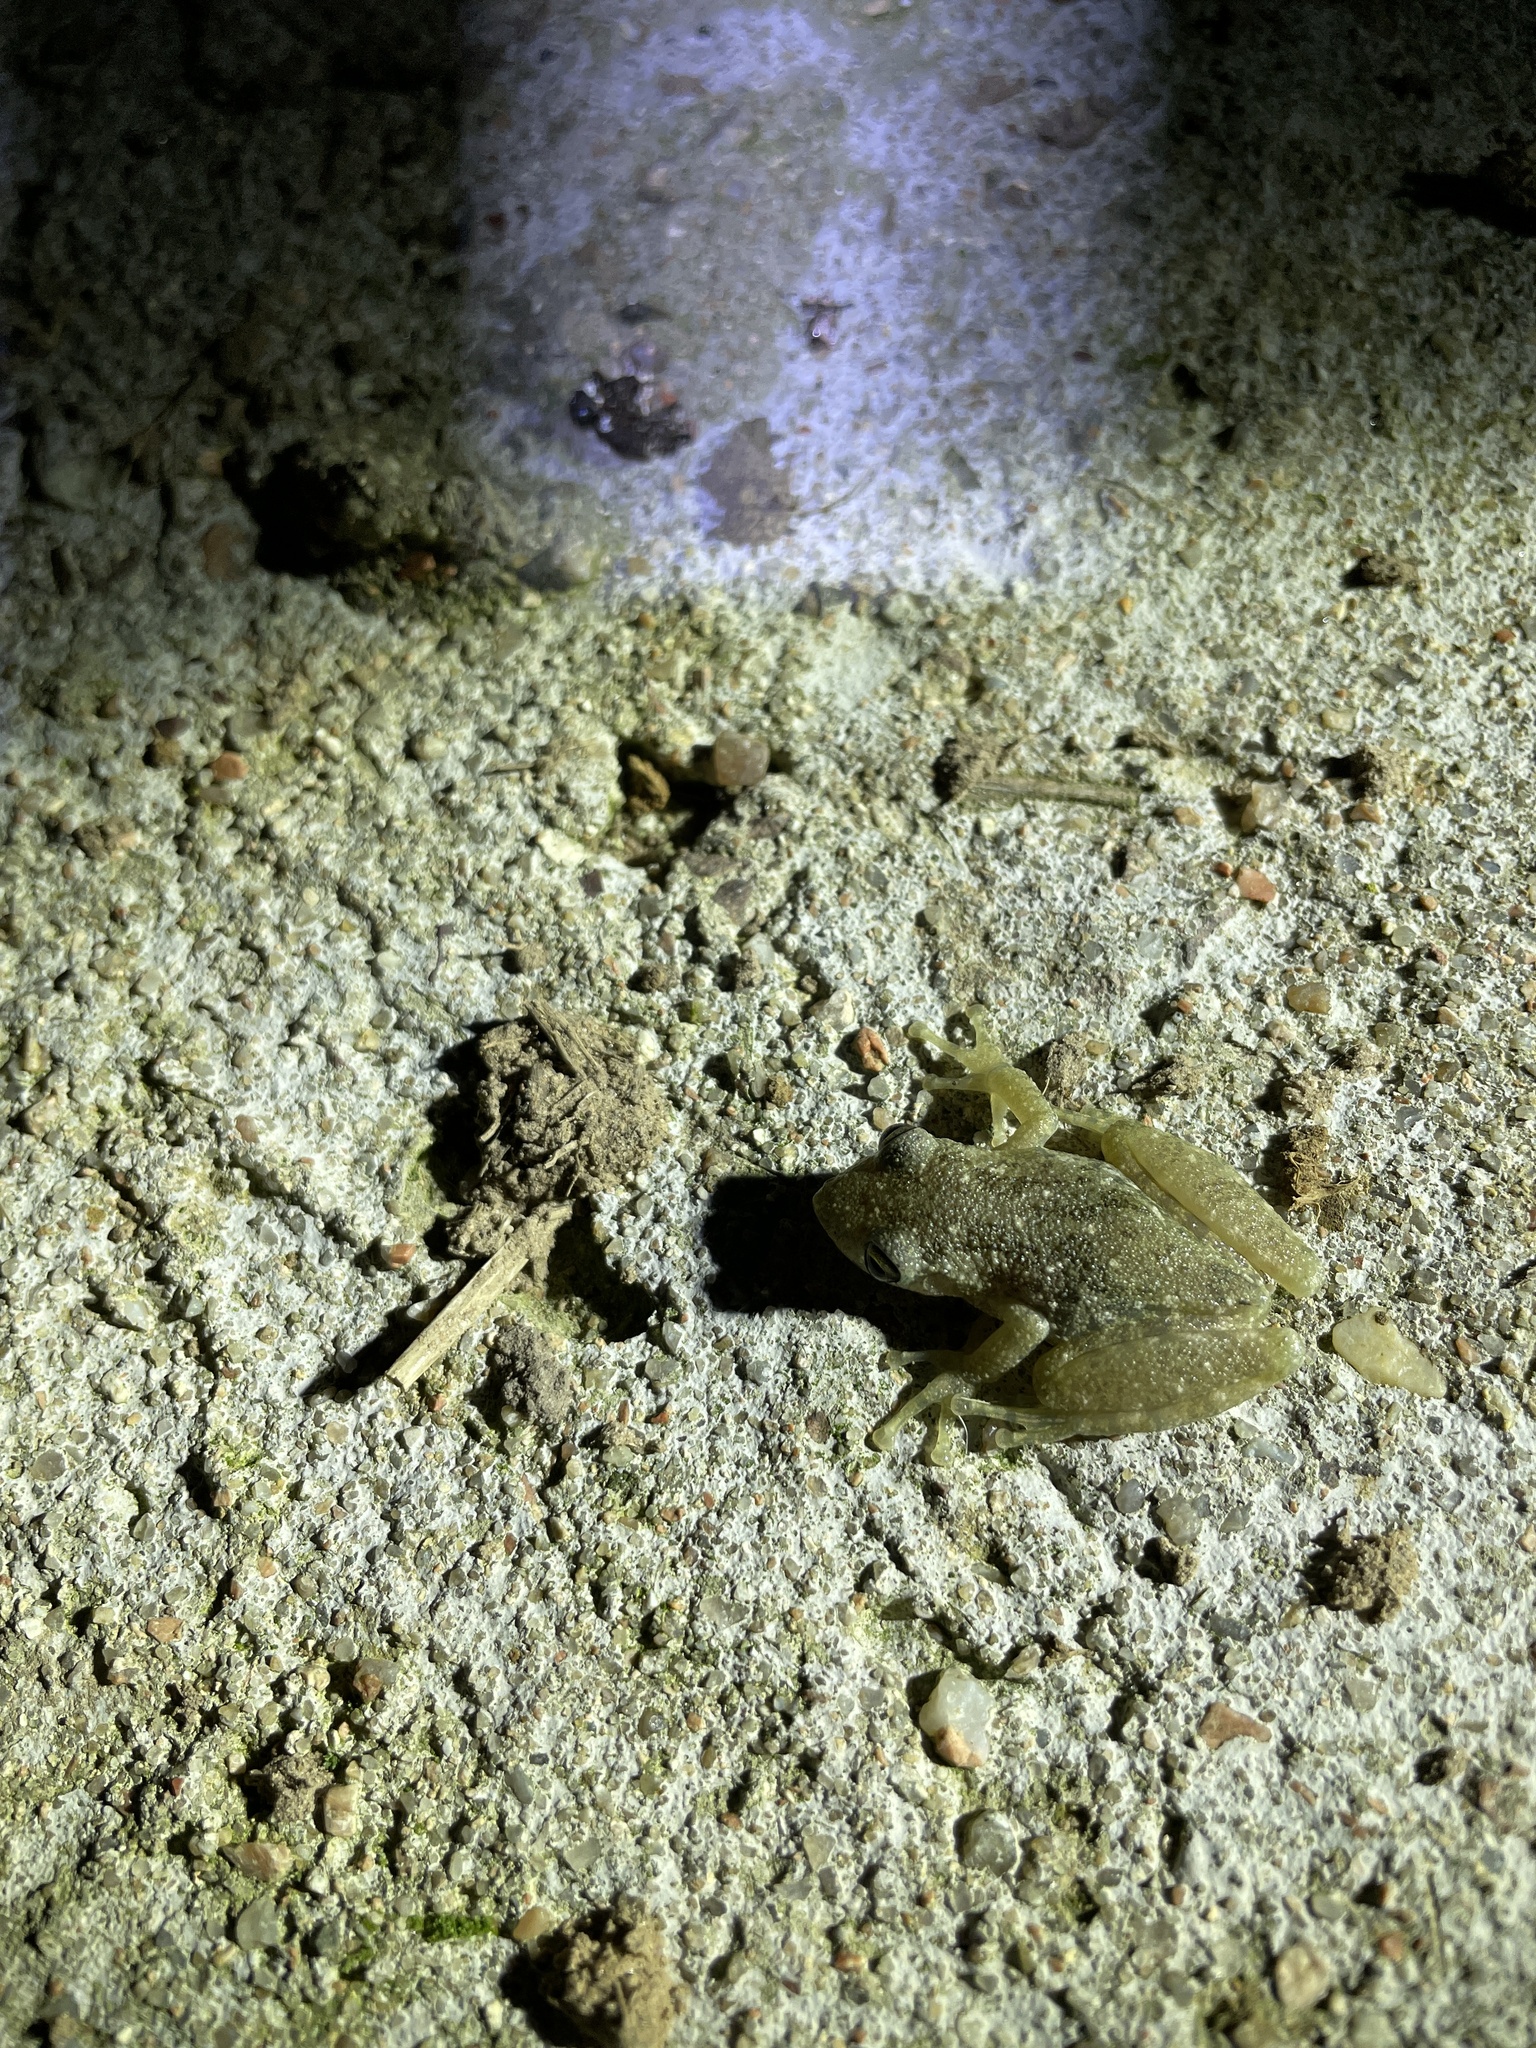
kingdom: Animalia
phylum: Chordata
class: Amphibia
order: Anura
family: Hylidae
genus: Scinax
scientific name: Scinax granulatus
